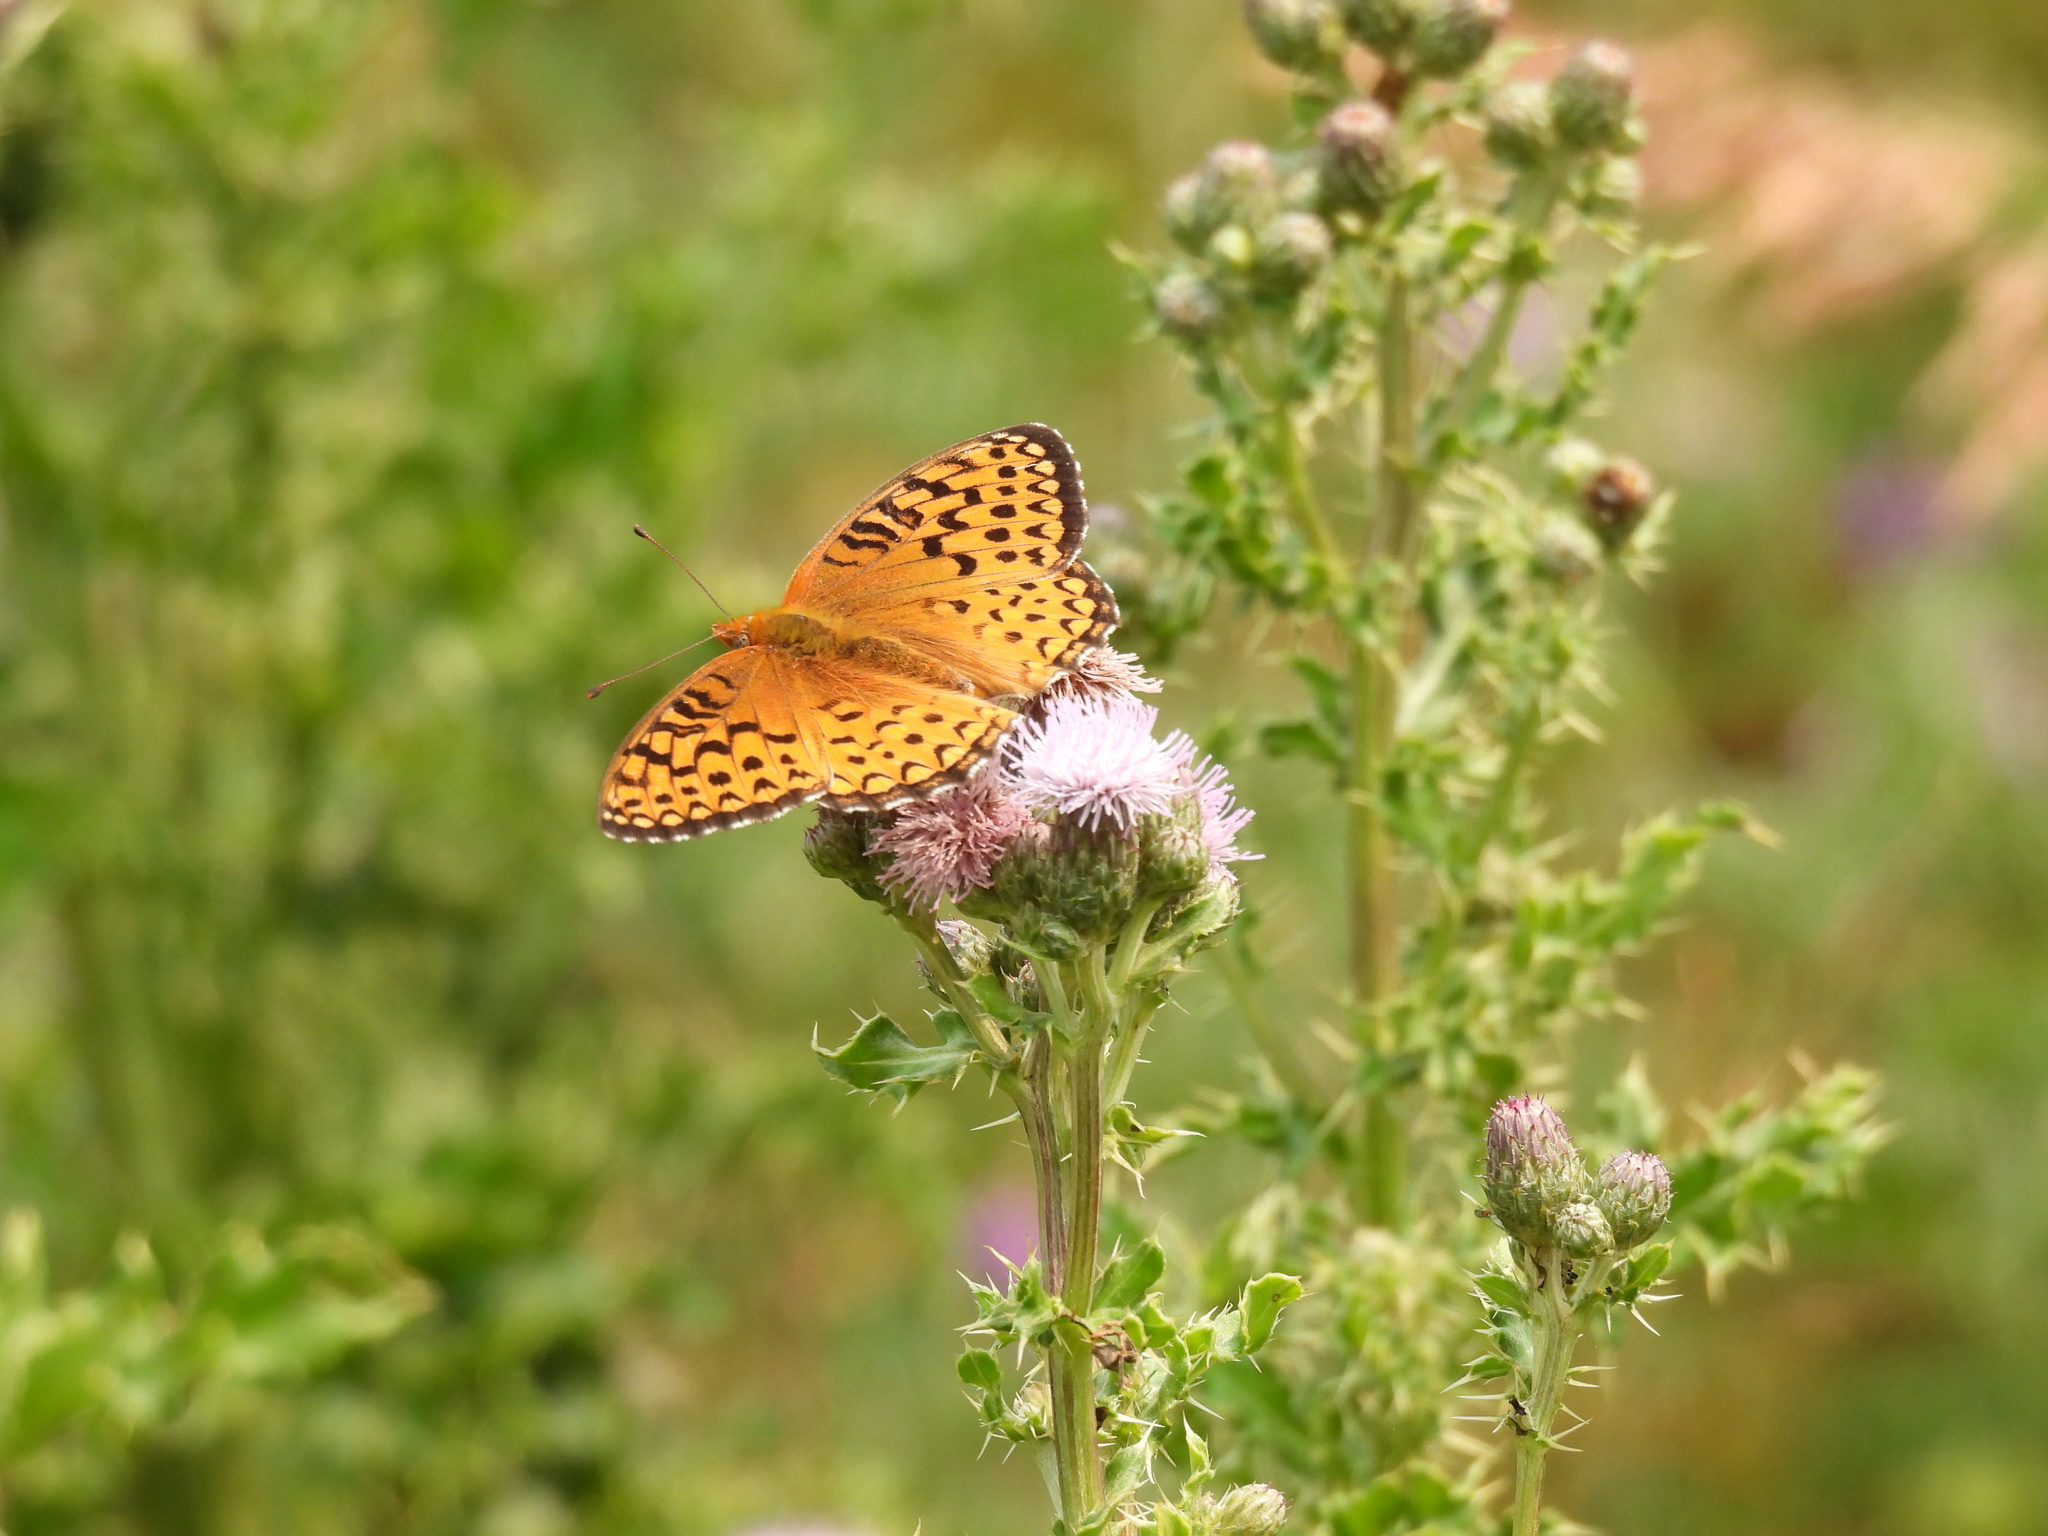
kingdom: Animalia
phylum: Arthropoda
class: Insecta
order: Lepidoptera
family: Nymphalidae
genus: Speyeria
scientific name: Speyeria atlantis
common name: Atlantis fritillary
